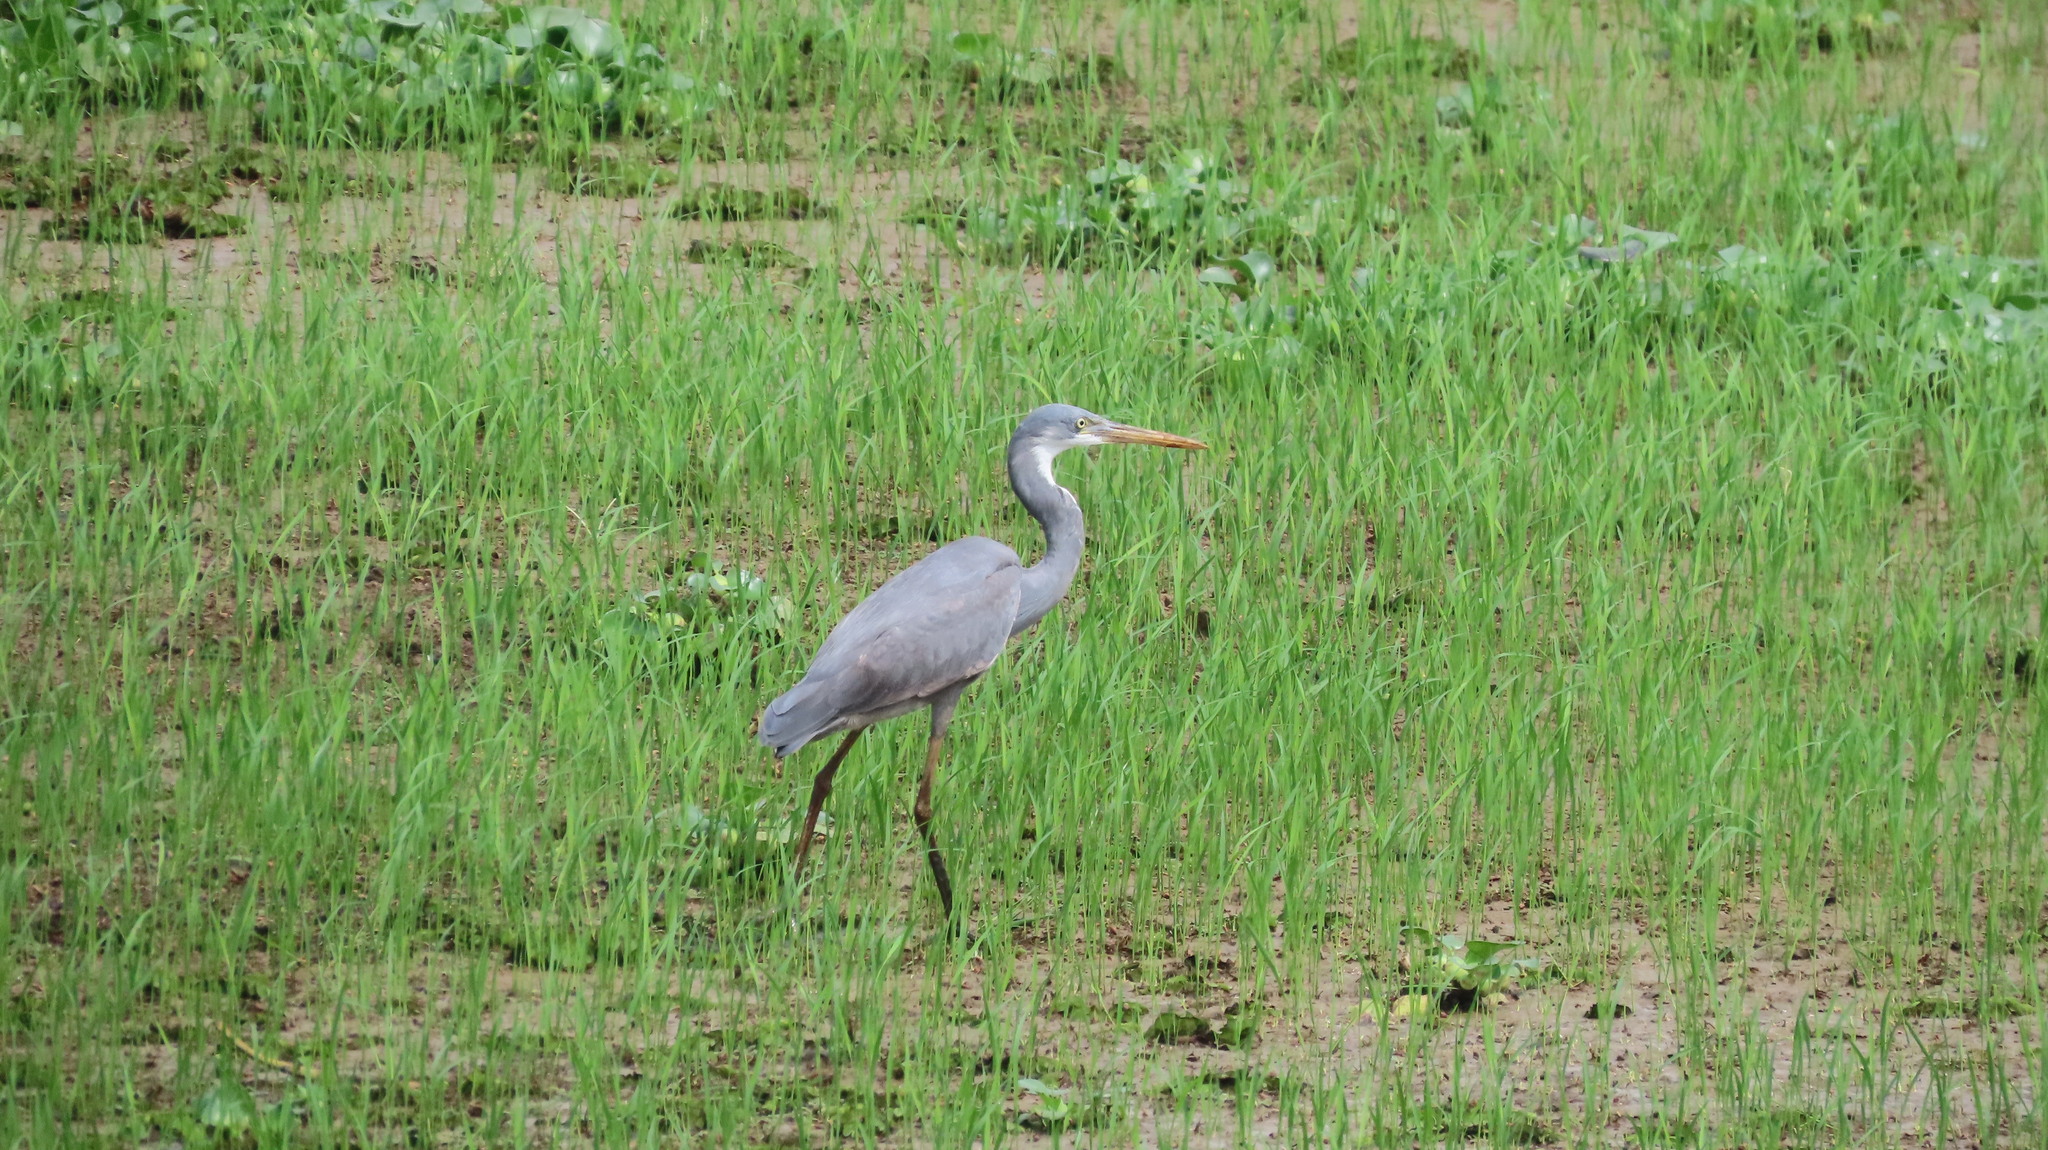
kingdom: Animalia
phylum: Chordata
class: Aves
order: Pelecaniformes
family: Ardeidae
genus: Egretta
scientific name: Egretta gularis
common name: Western reef-heron
